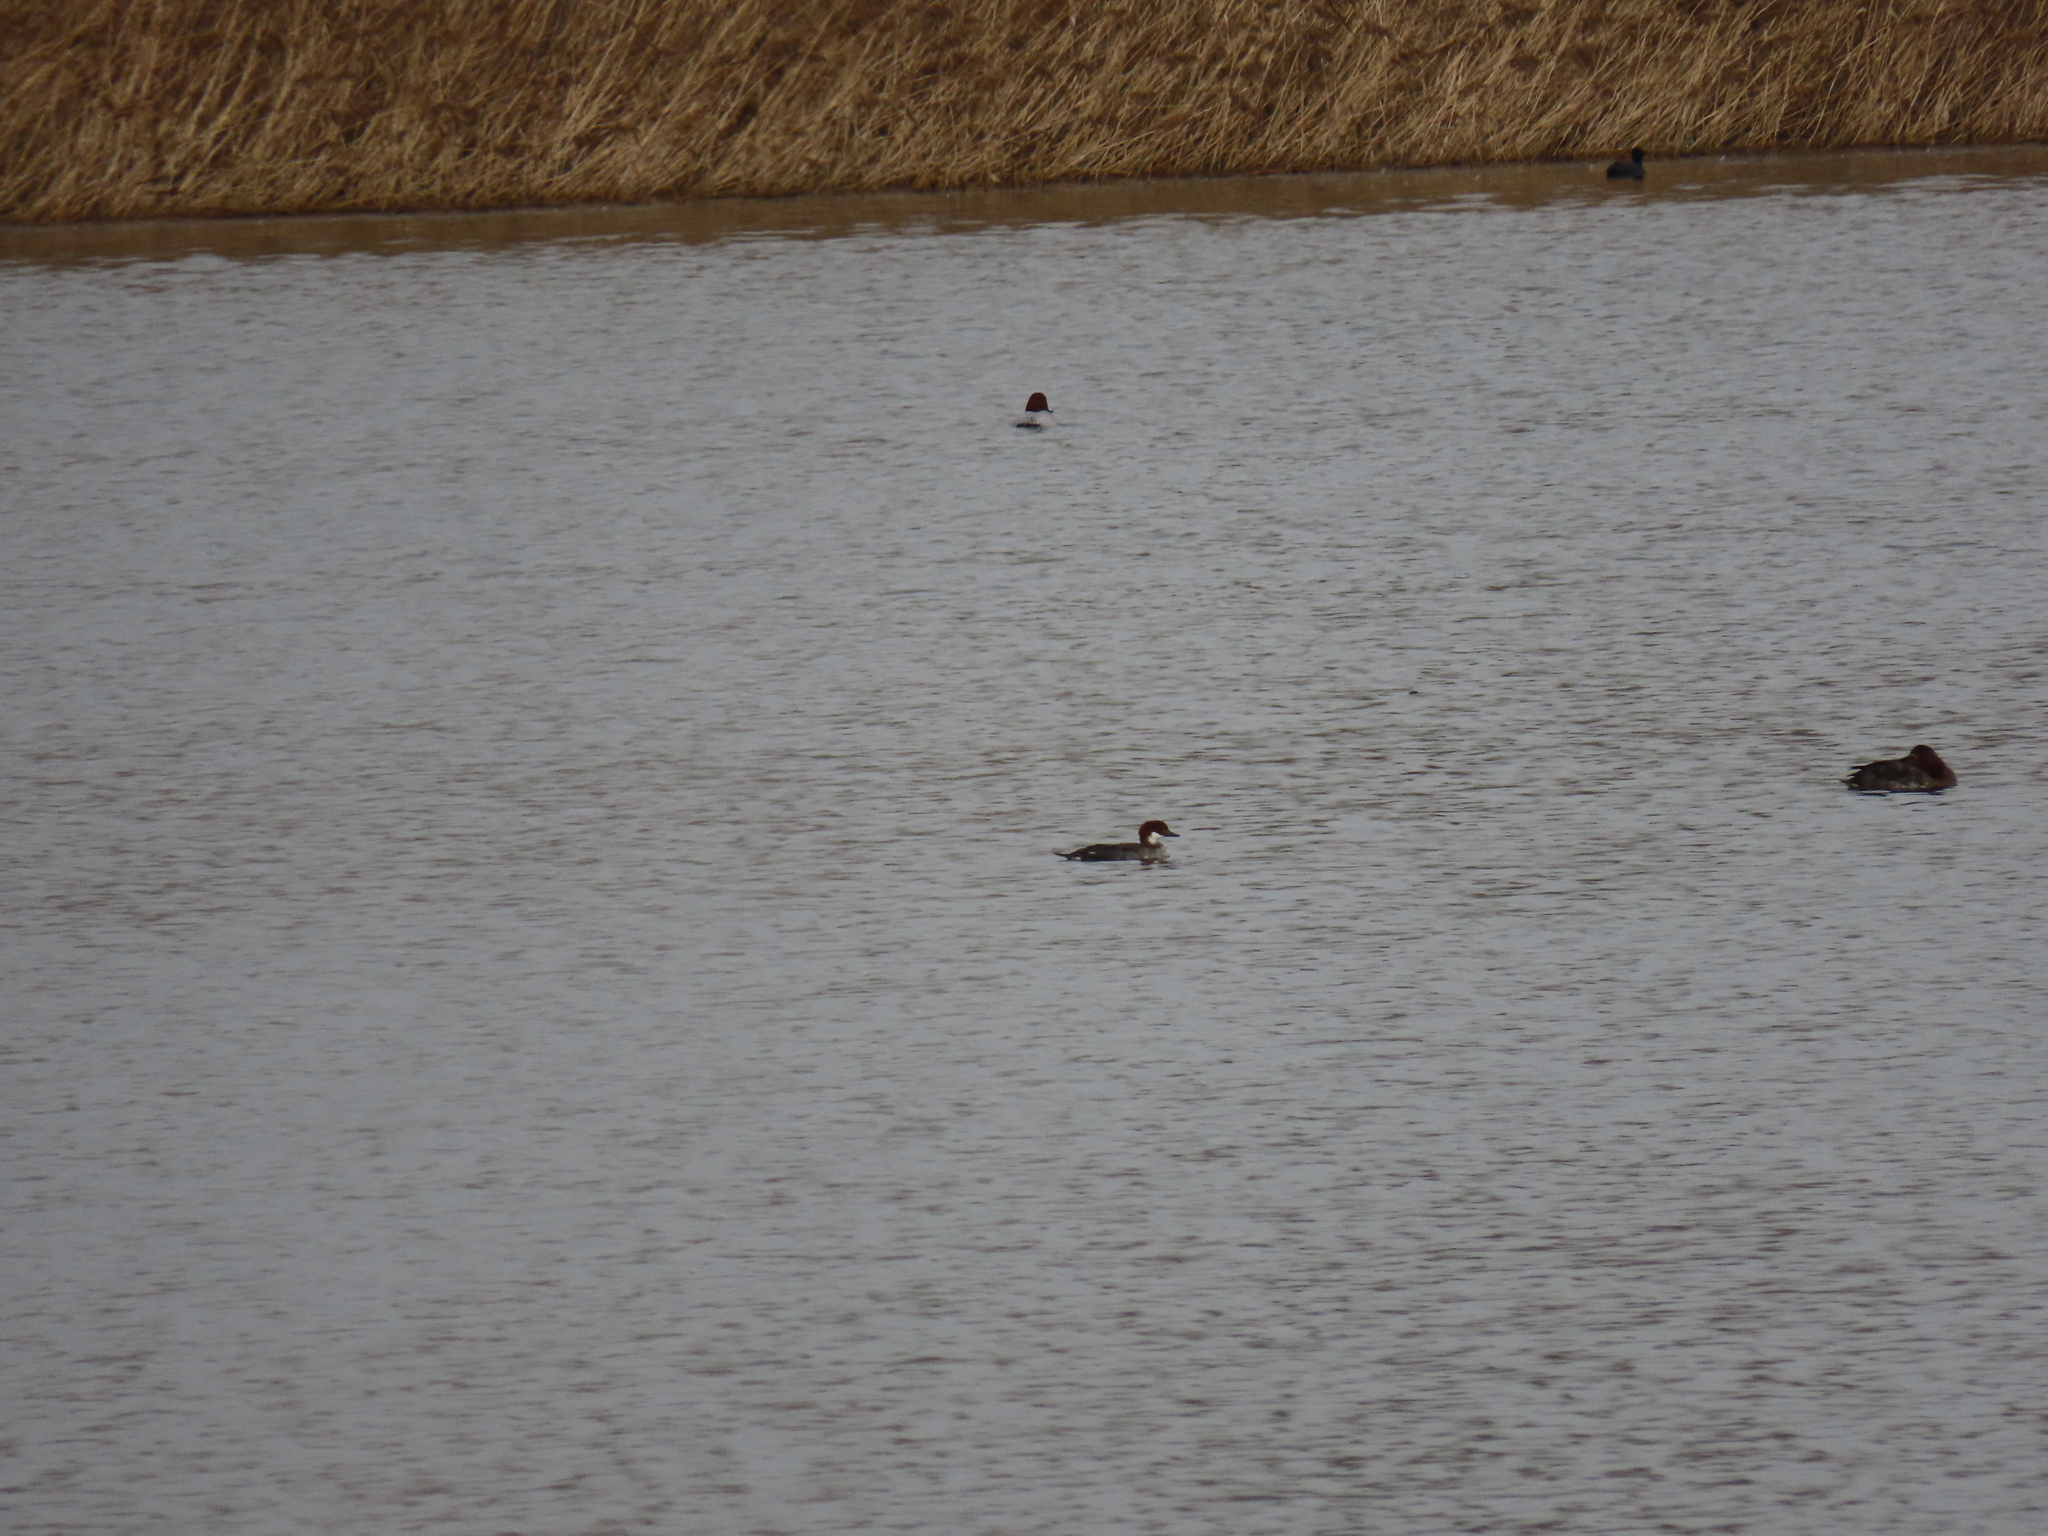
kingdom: Animalia
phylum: Chordata
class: Aves
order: Anseriformes
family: Anatidae
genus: Mergellus
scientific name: Mergellus albellus
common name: Smew
